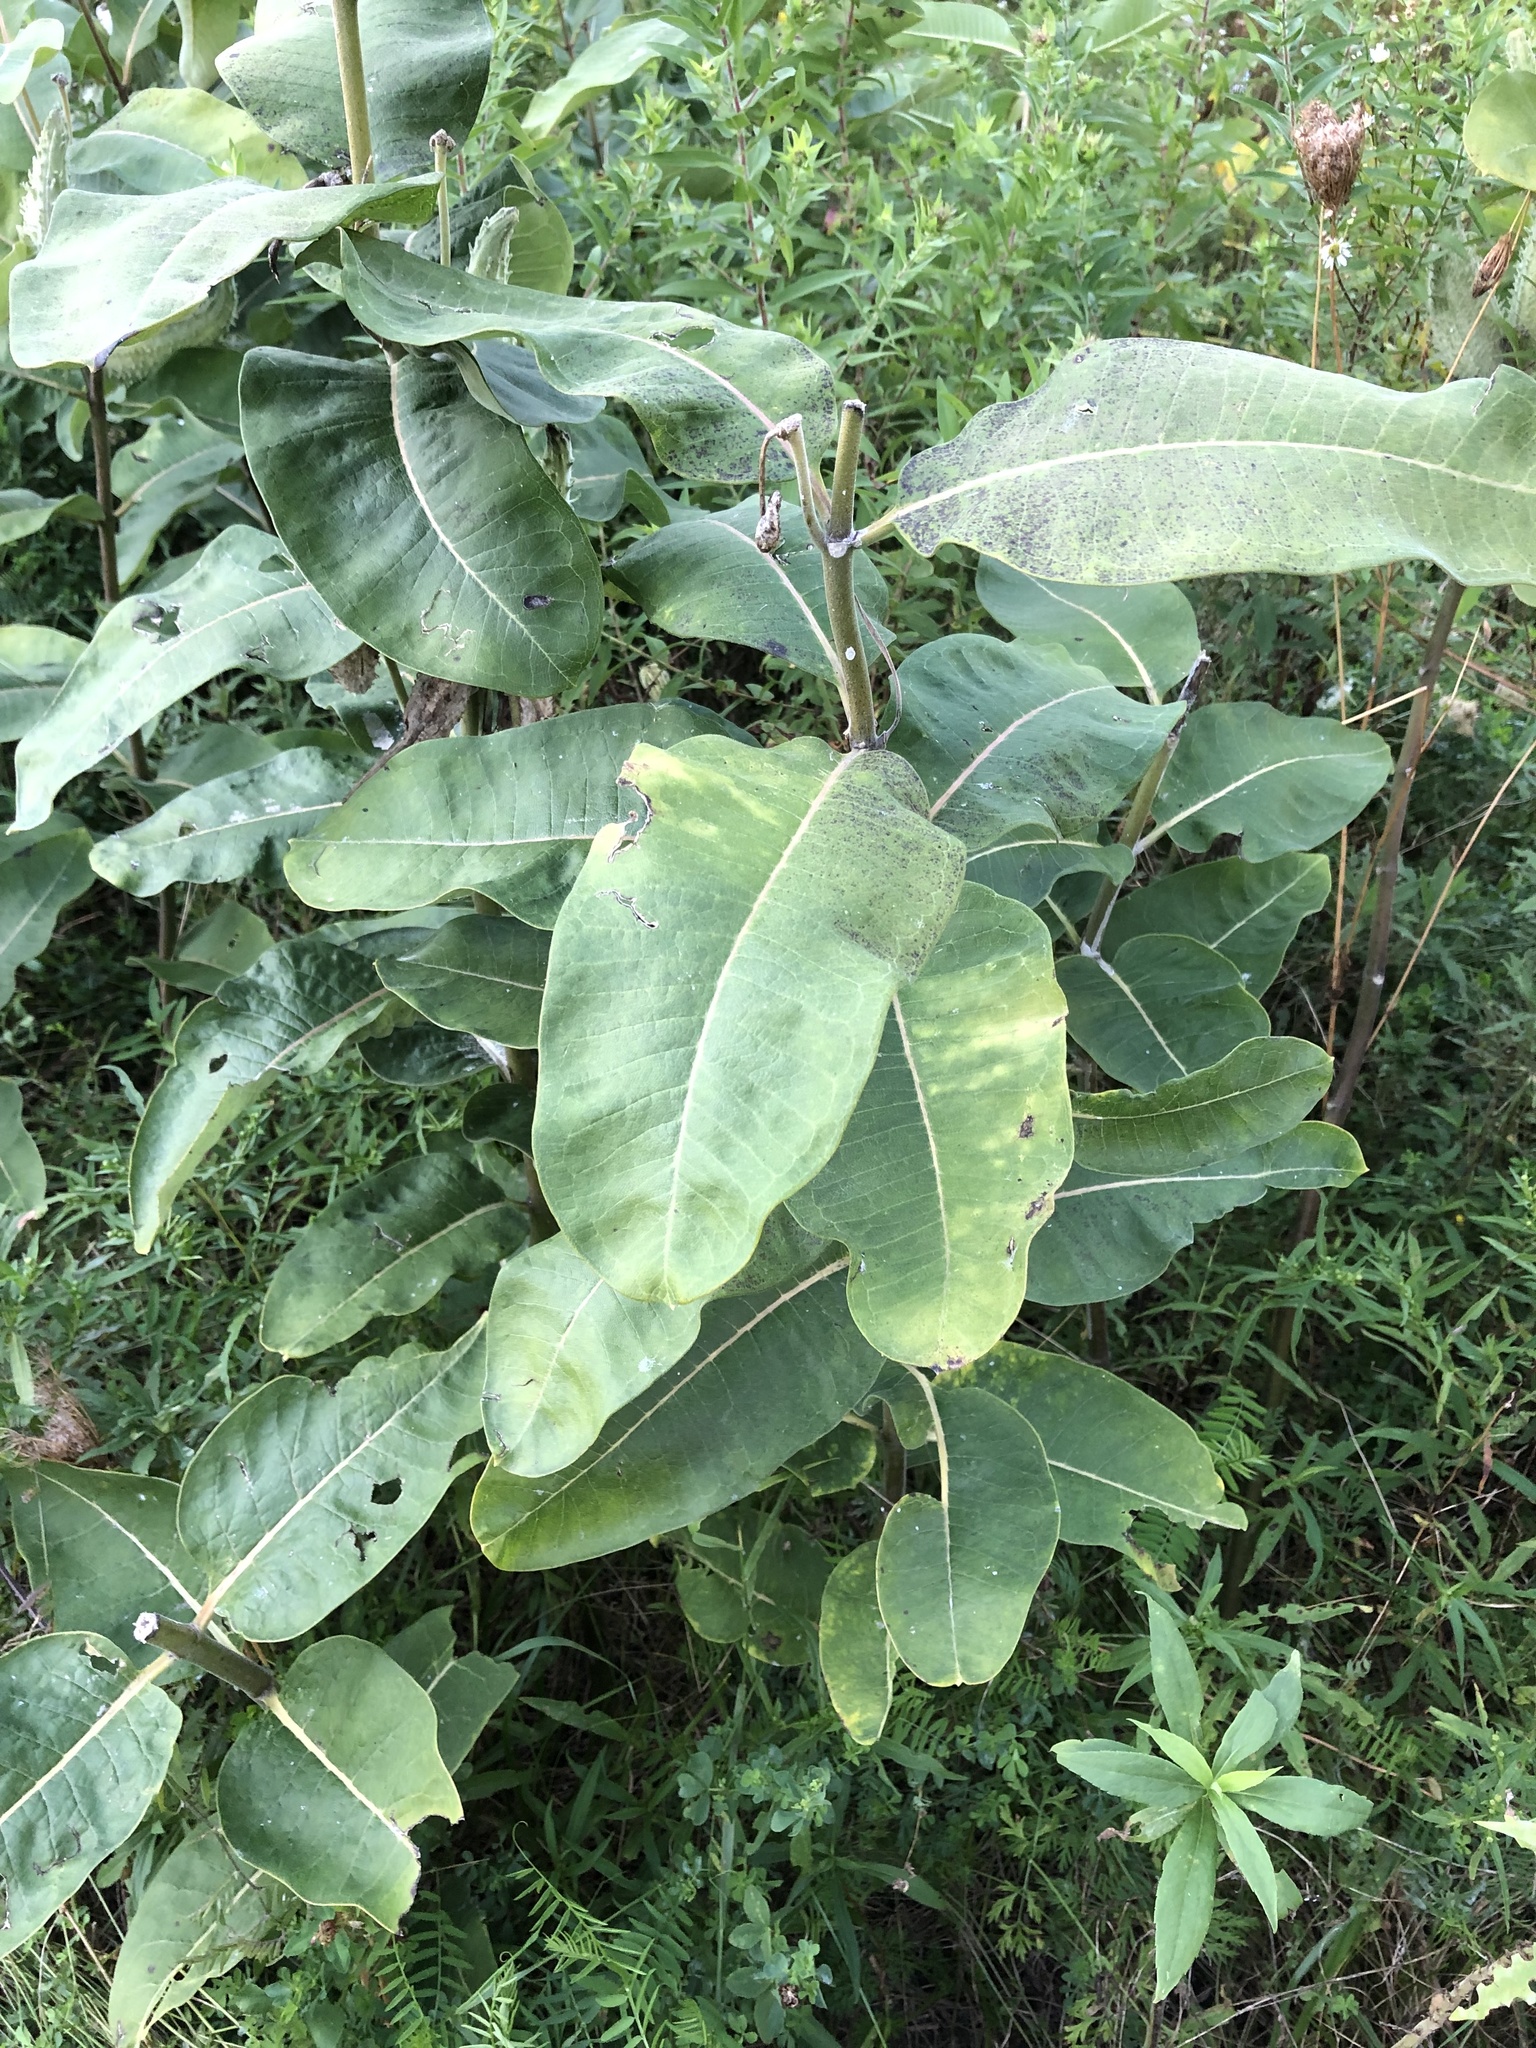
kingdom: Plantae
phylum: Tracheophyta
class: Magnoliopsida
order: Gentianales
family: Apocynaceae
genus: Asclepias
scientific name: Asclepias syriaca
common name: Common milkweed
